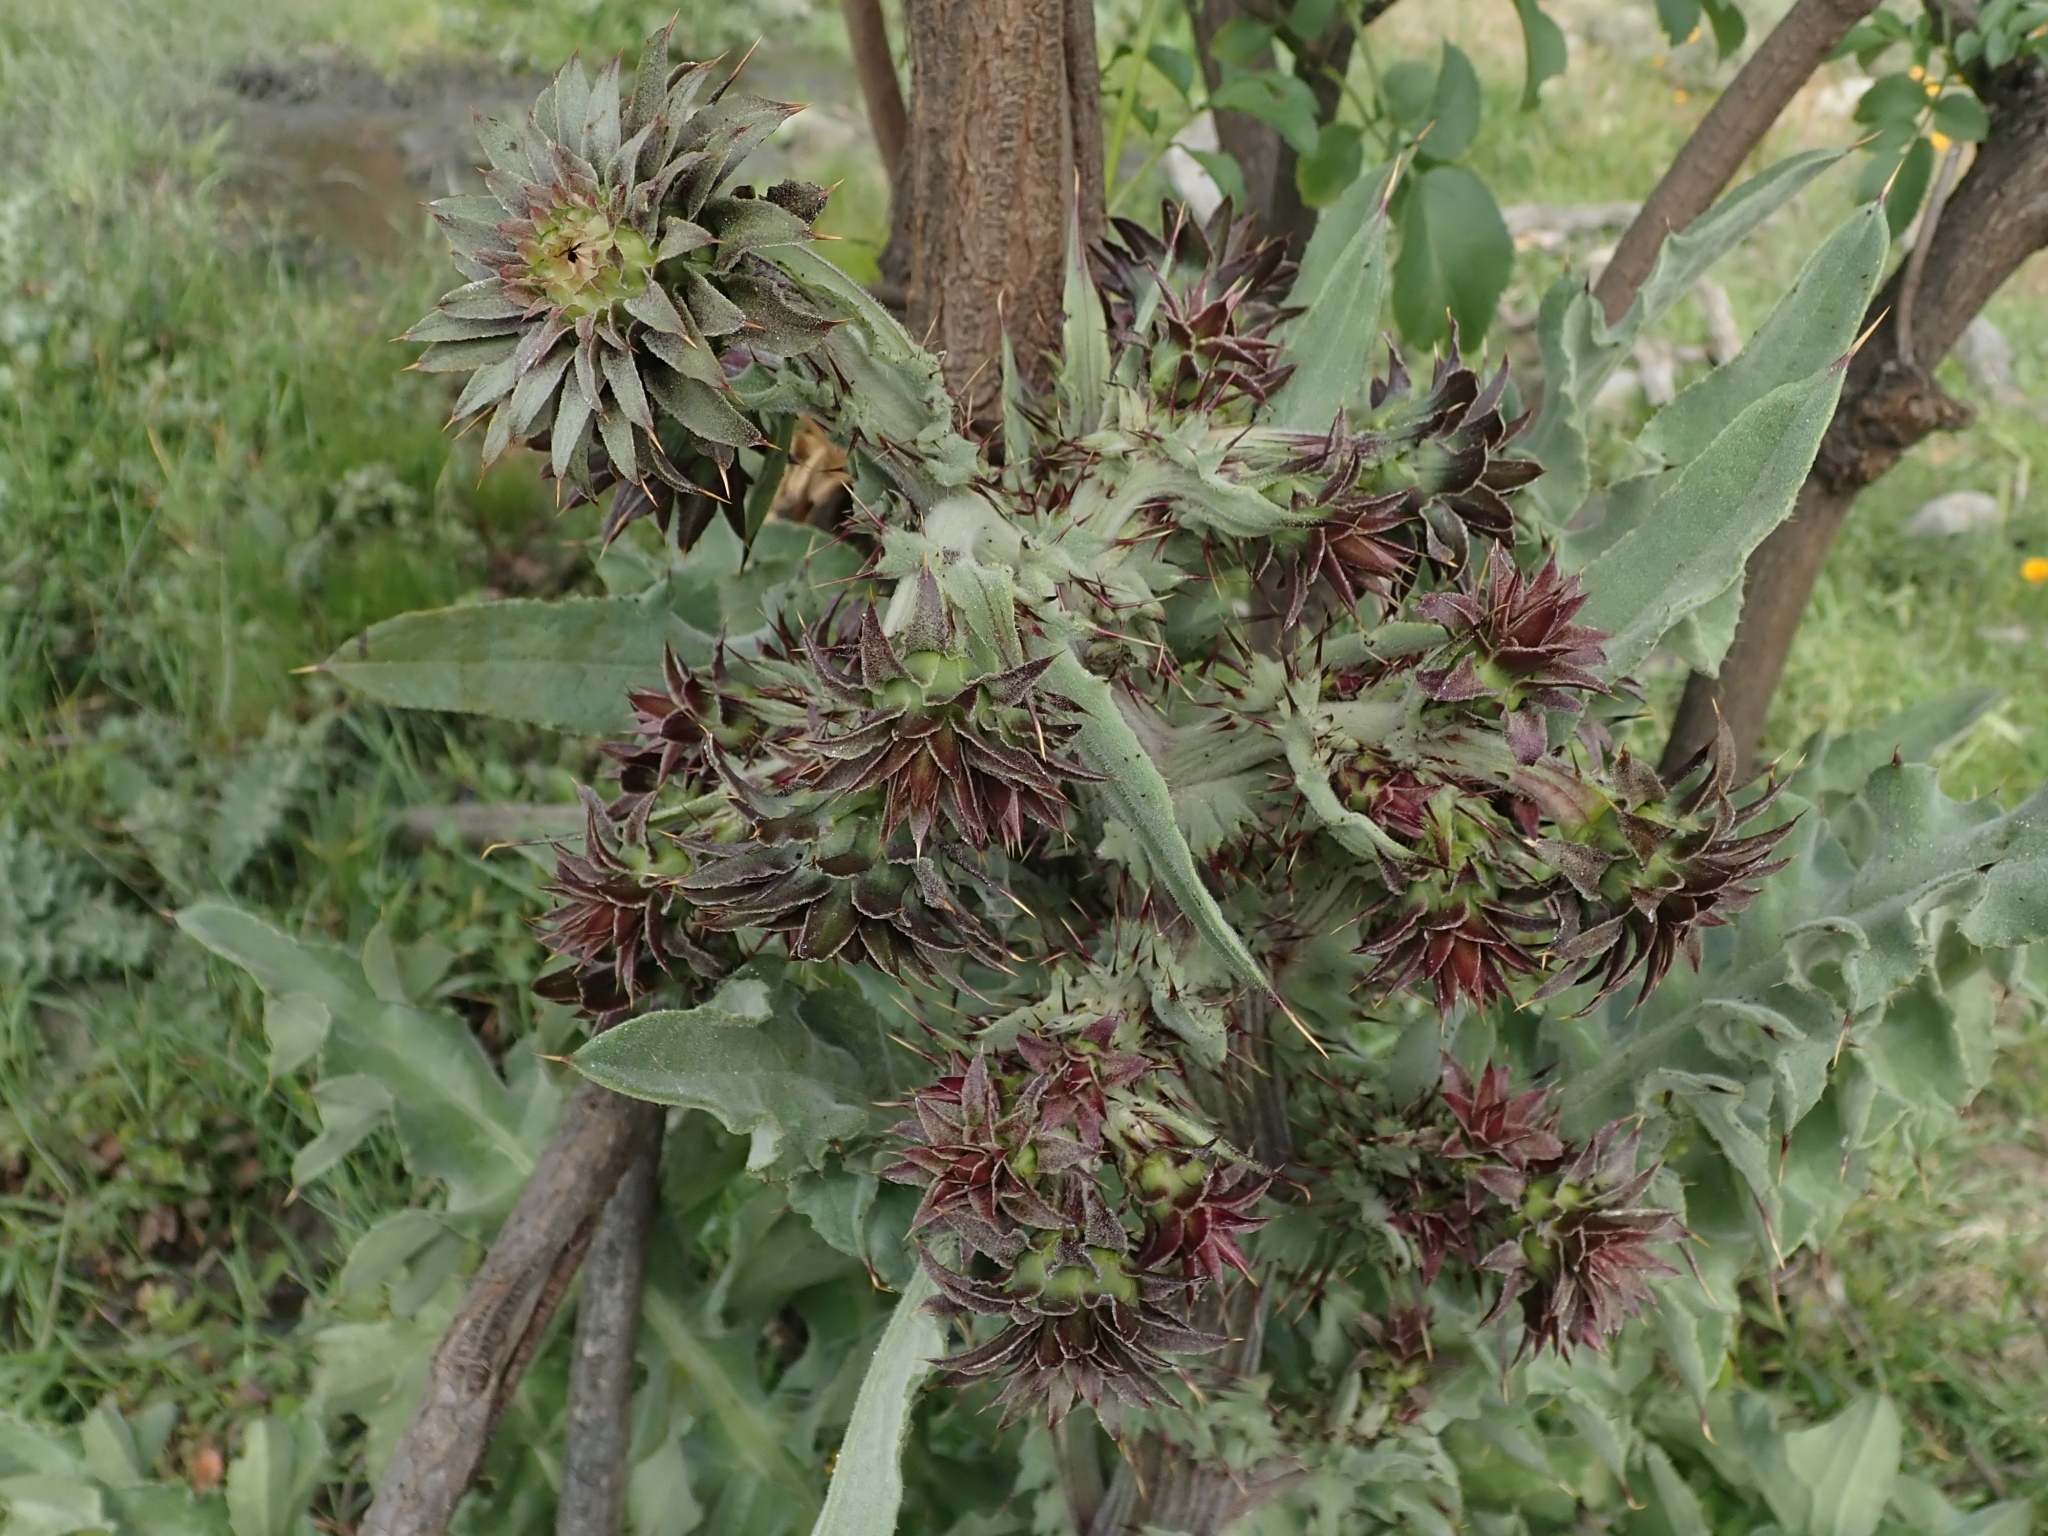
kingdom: Plantae
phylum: Tracheophyta
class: Magnoliopsida
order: Asterales
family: Asteraceae
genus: Cirsium
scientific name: Cirsium fontinale
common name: Fountain thistle
